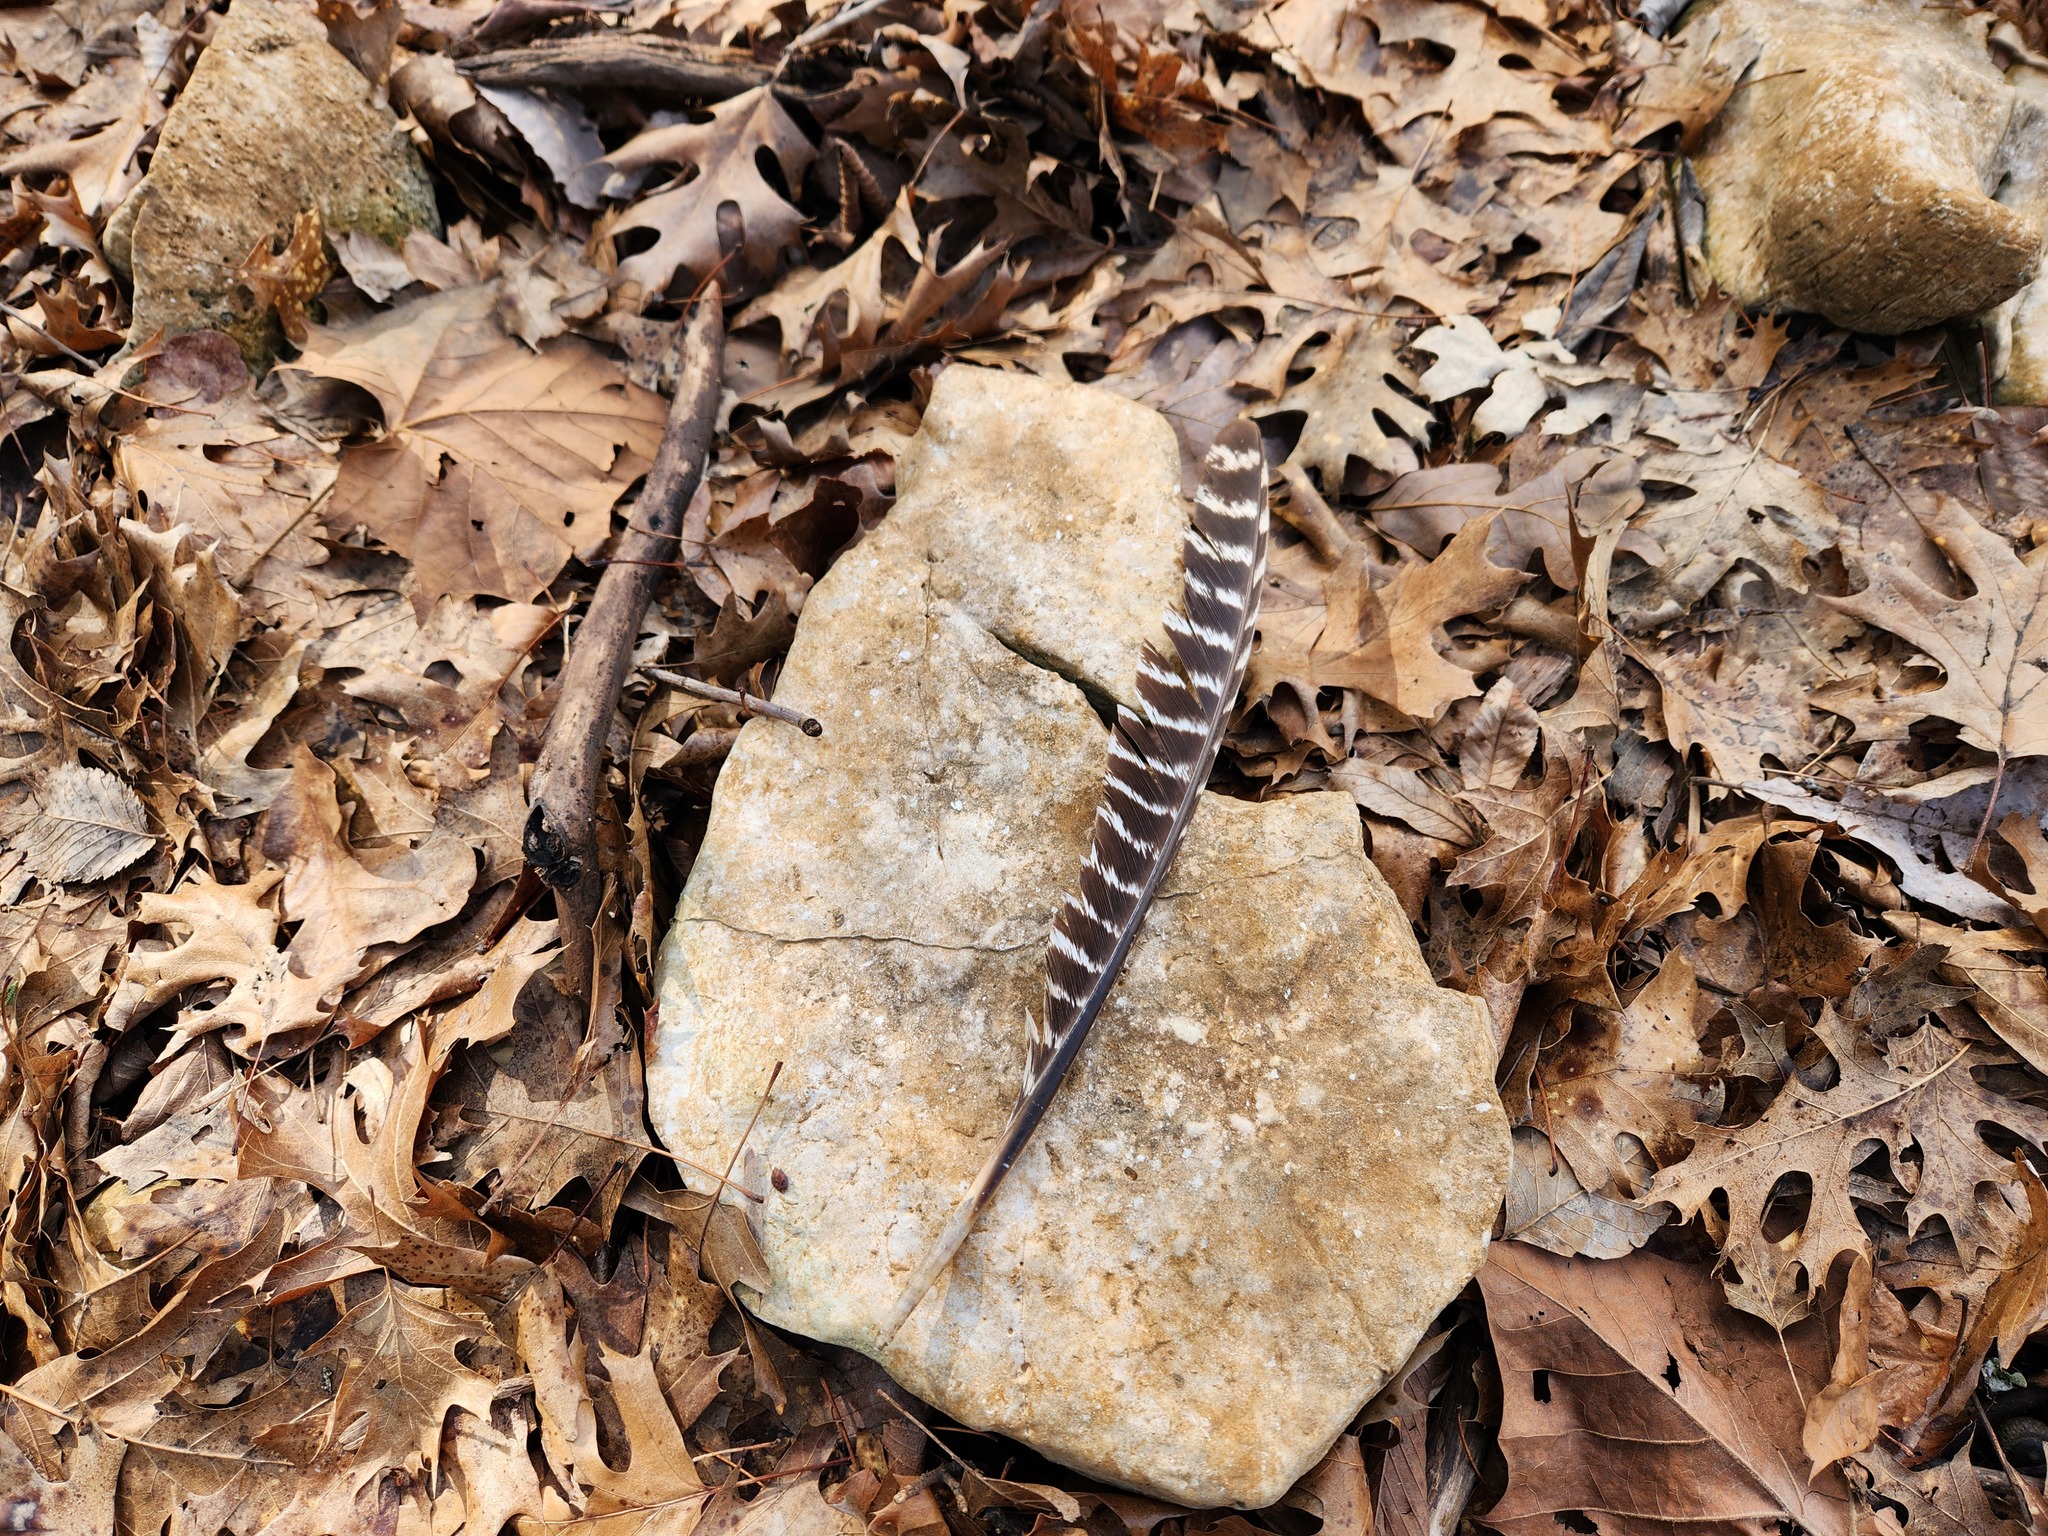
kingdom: Animalia
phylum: Chordata
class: Aves
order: Galliformes
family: Phasianidae
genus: Meleagris
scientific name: Meleagris gallopavo
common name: Wild turkey
